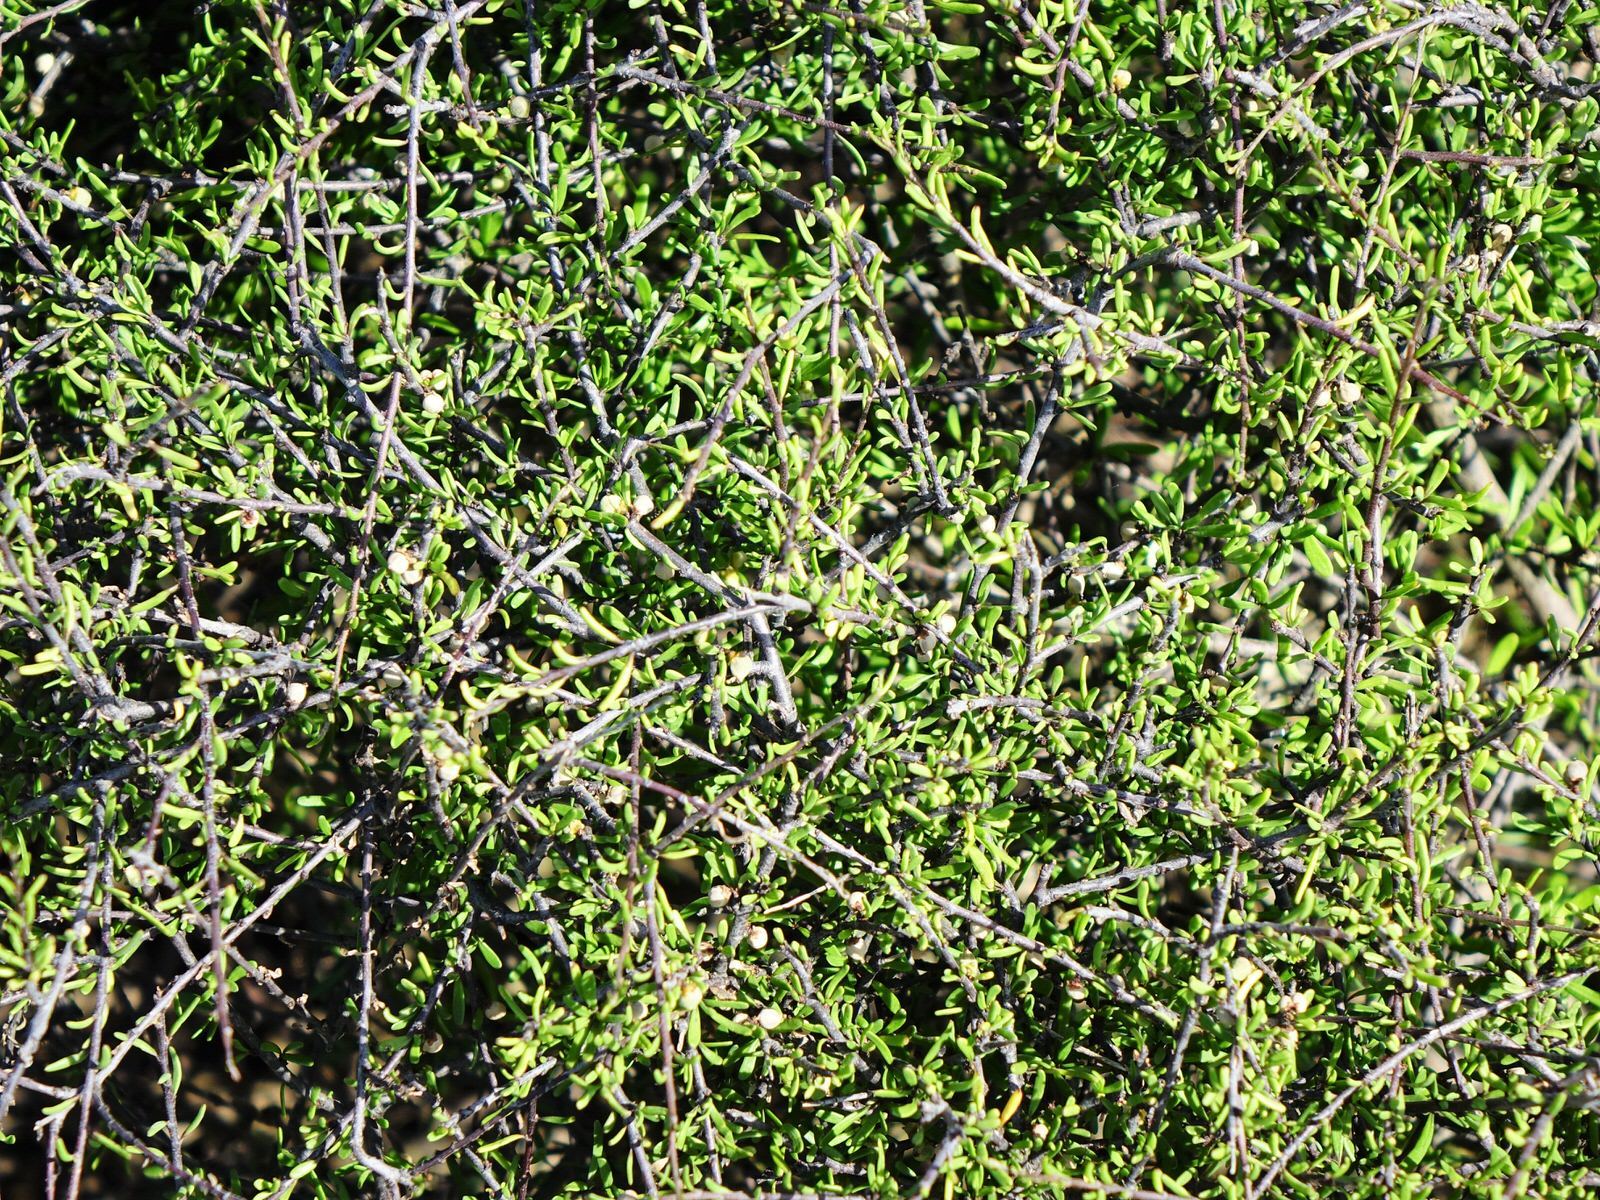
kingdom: Plantae
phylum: Tracheophyta
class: Magnoliopsida
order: Malvales
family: Malvaceae
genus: Plagianthus
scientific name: Plagianthus divaricatus
